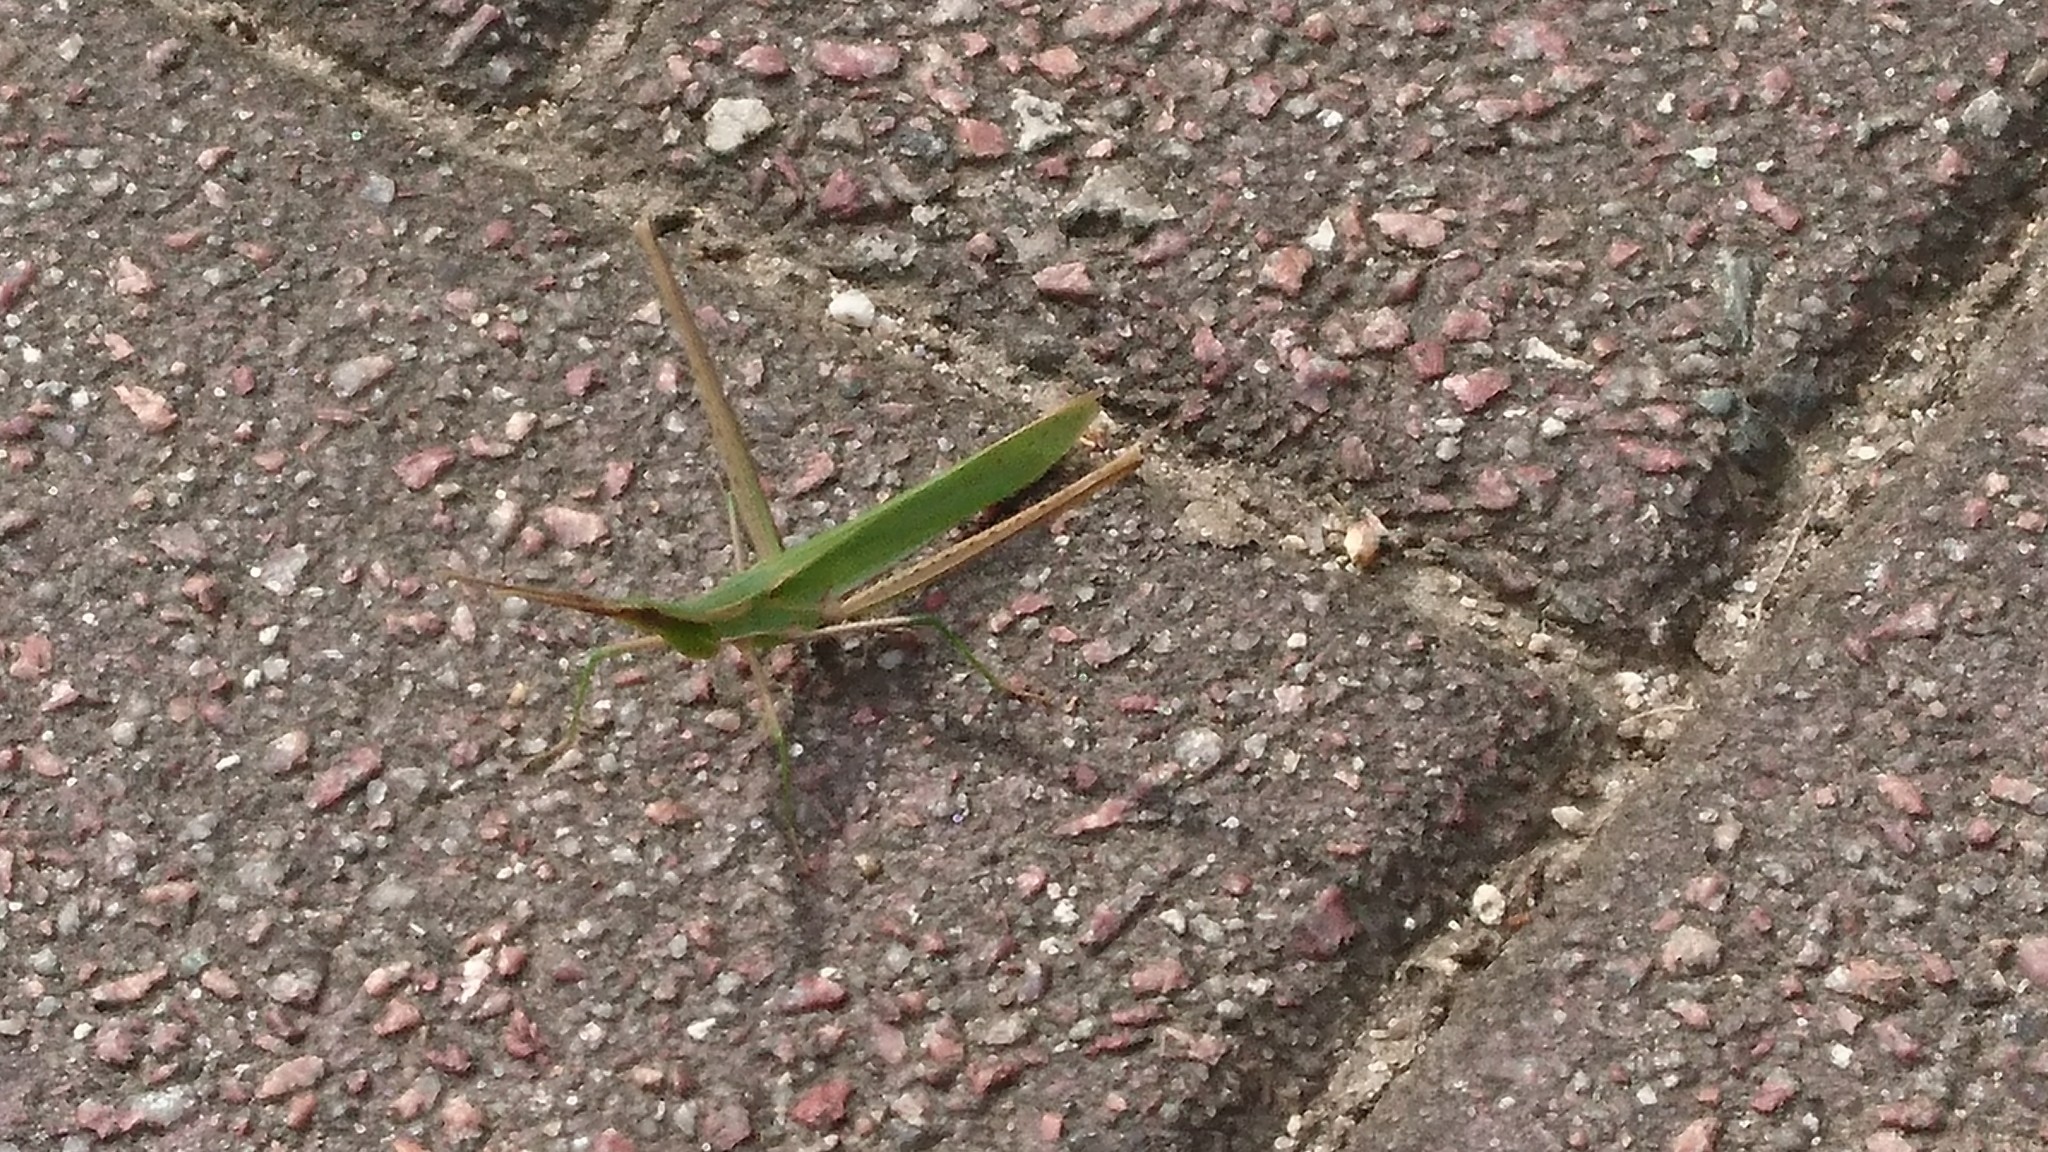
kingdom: Animalia
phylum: Arthropoda
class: Insecta
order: Orthoptera
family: Acrididae
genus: Acrida
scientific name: Acrida cinerea
